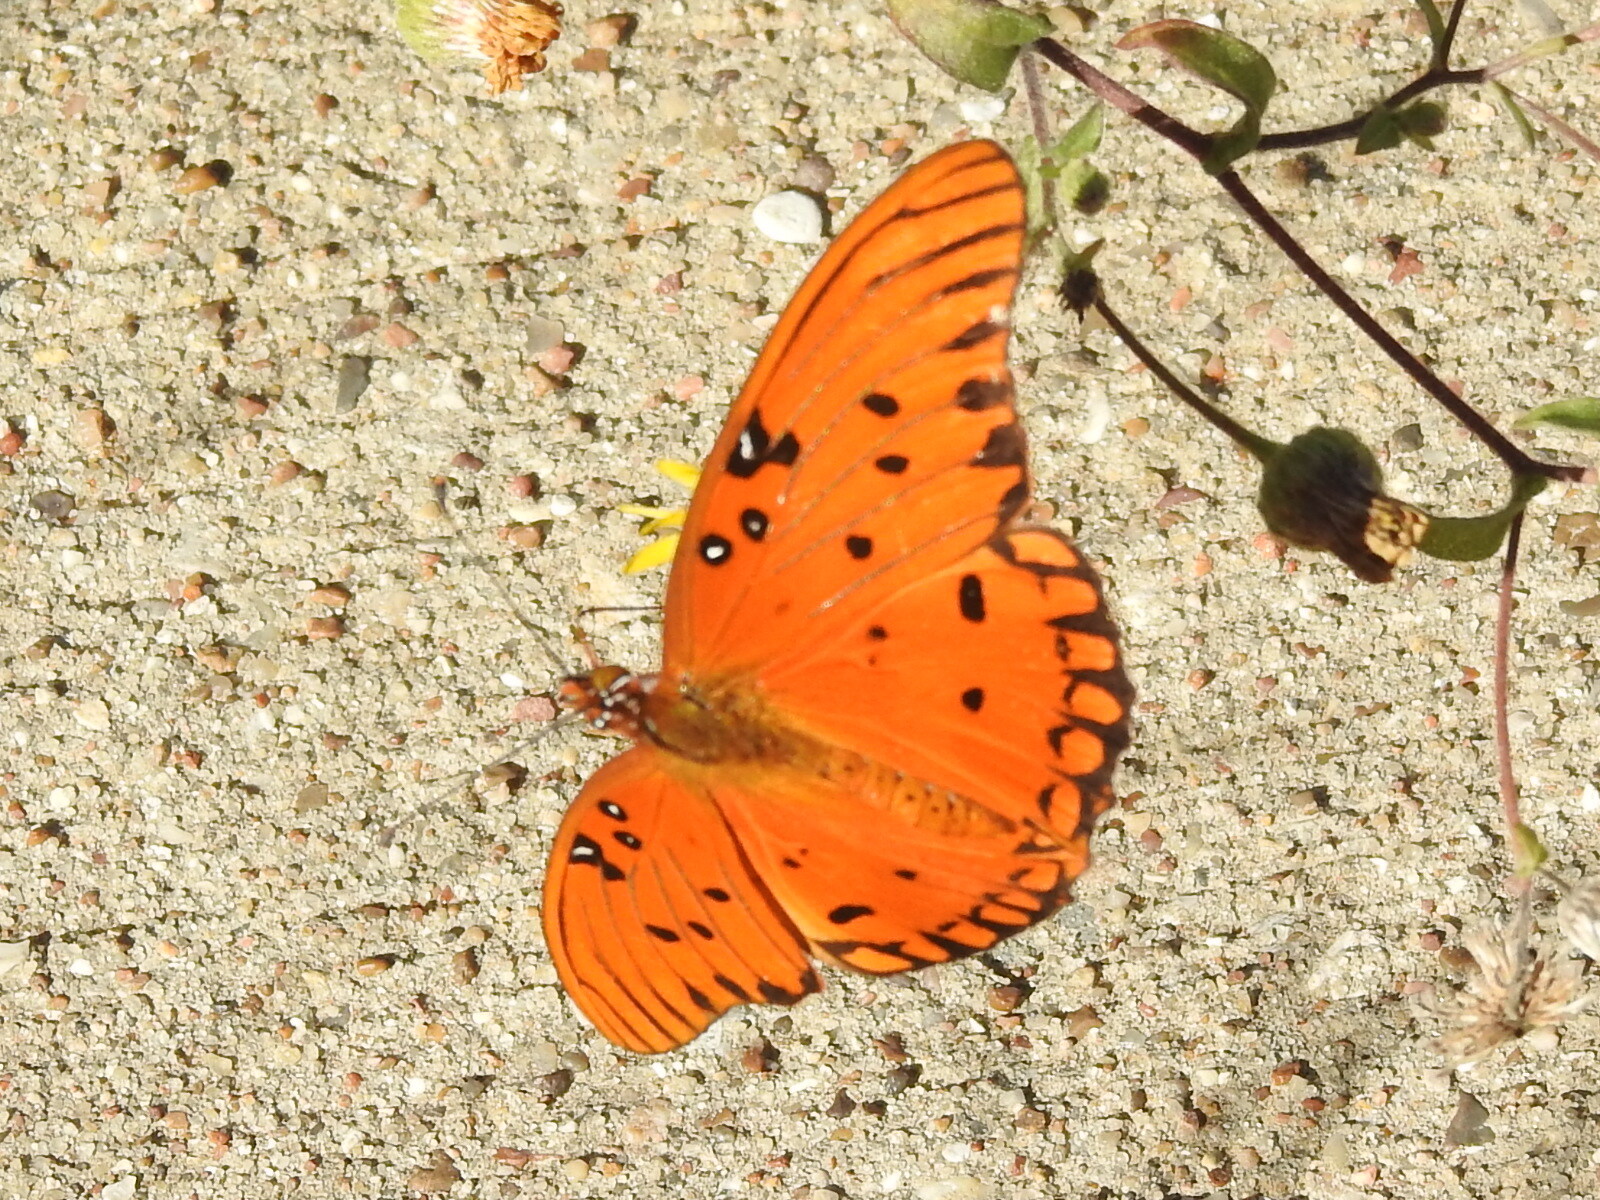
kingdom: Animalia
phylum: Arthropoda
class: Insecta
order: Lepidoptera
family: Nymphalidae
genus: Dione
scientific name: Dione vanillae
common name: Gulf fritillary
